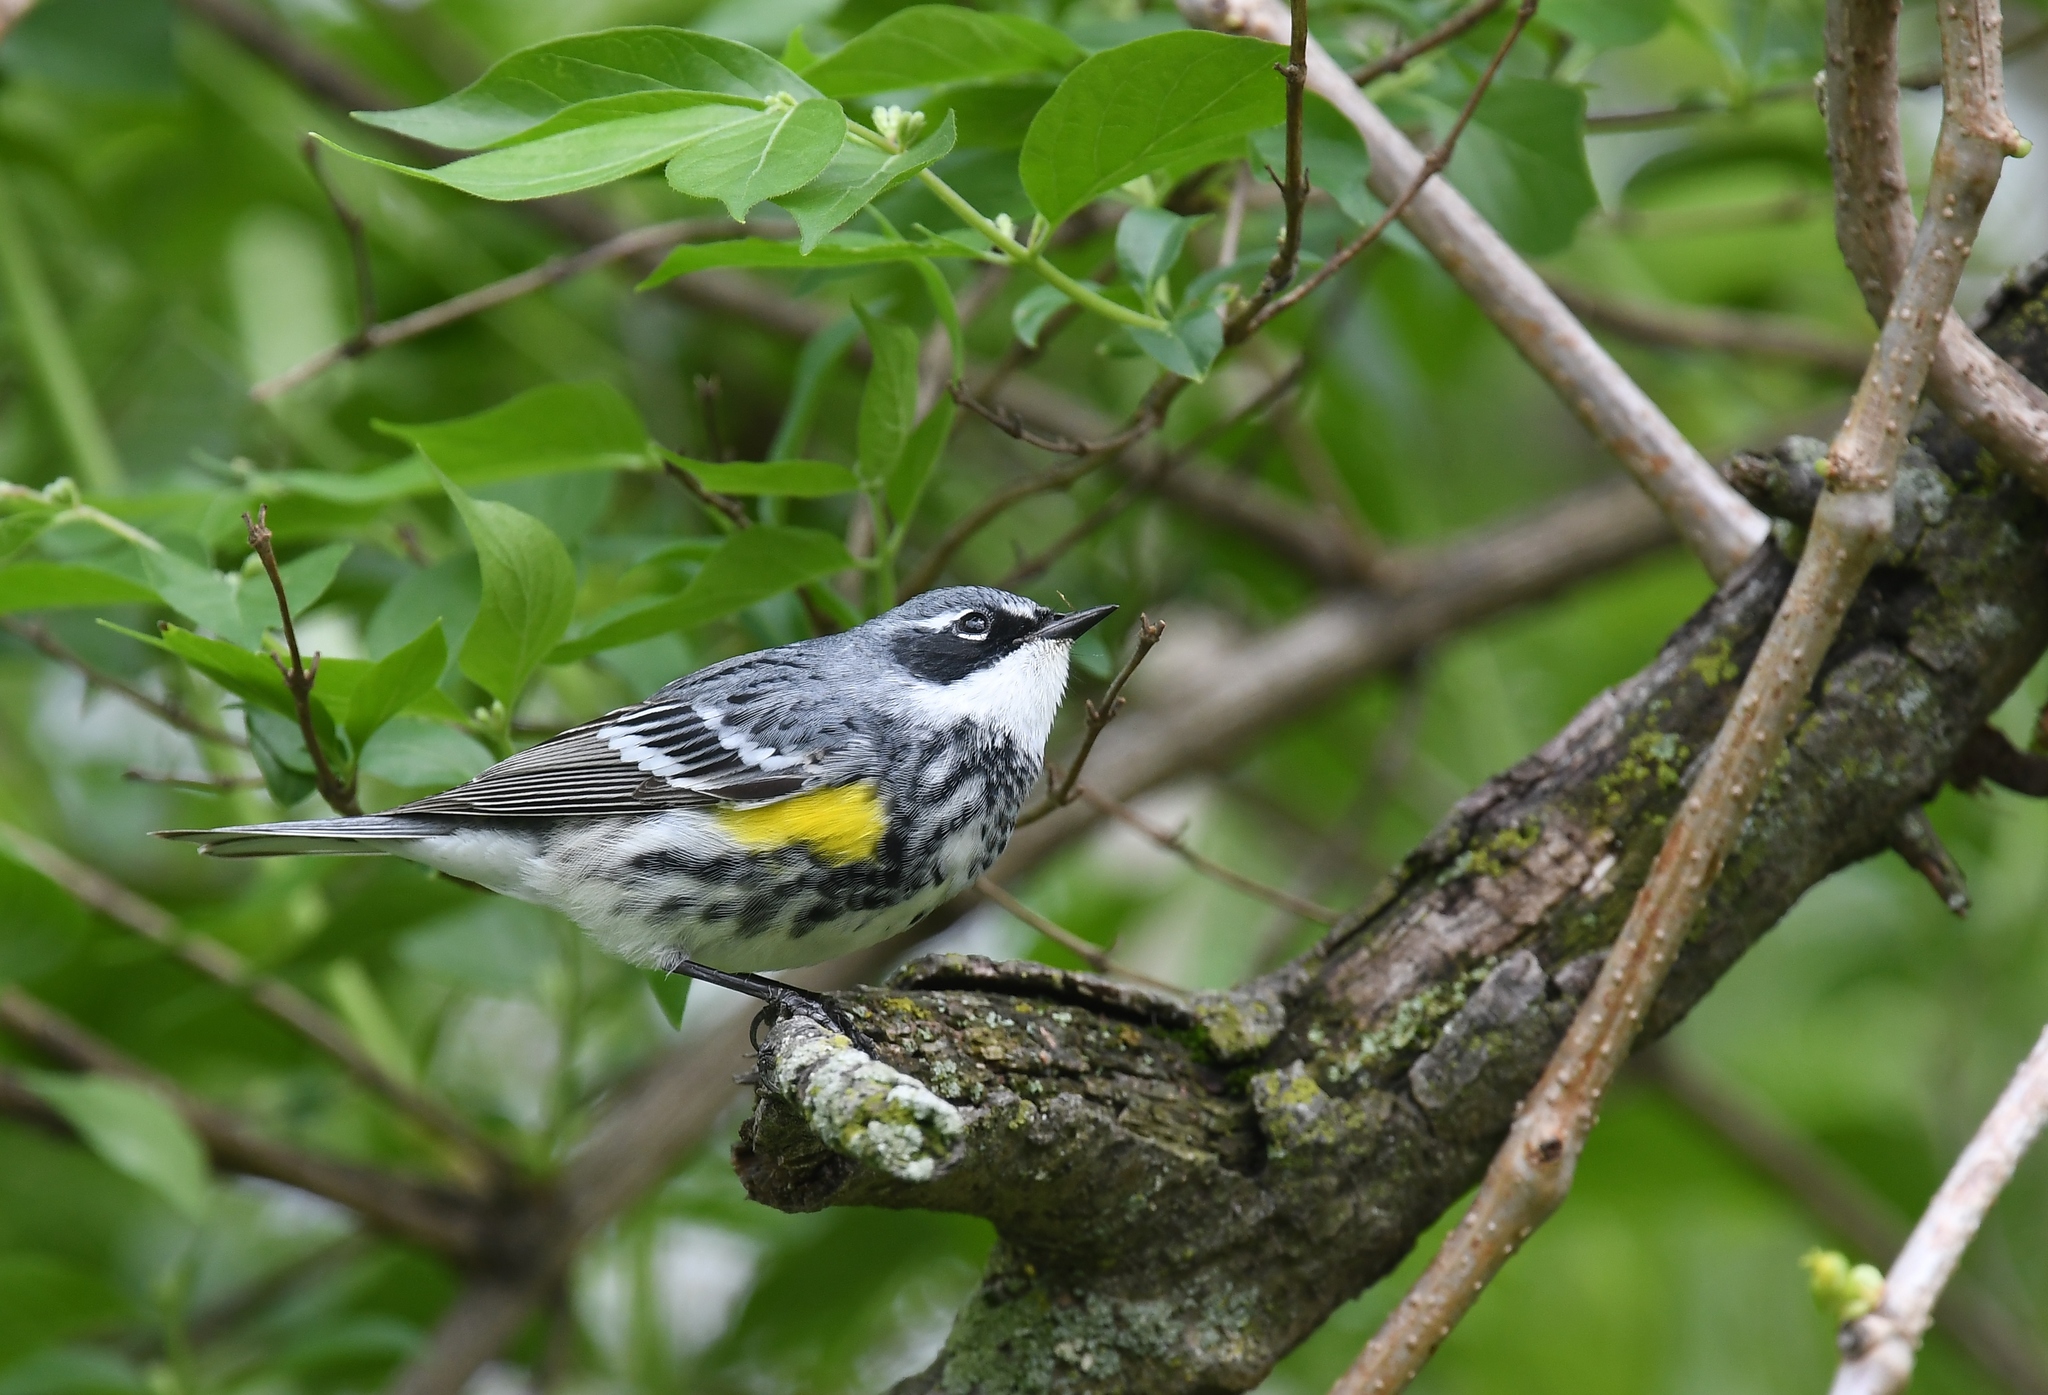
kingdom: Animalia
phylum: Chordata
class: Aves
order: Passeriformes
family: Parulidae
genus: Setophaga
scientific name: Setophaga coronata
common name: Myrtle warbler
